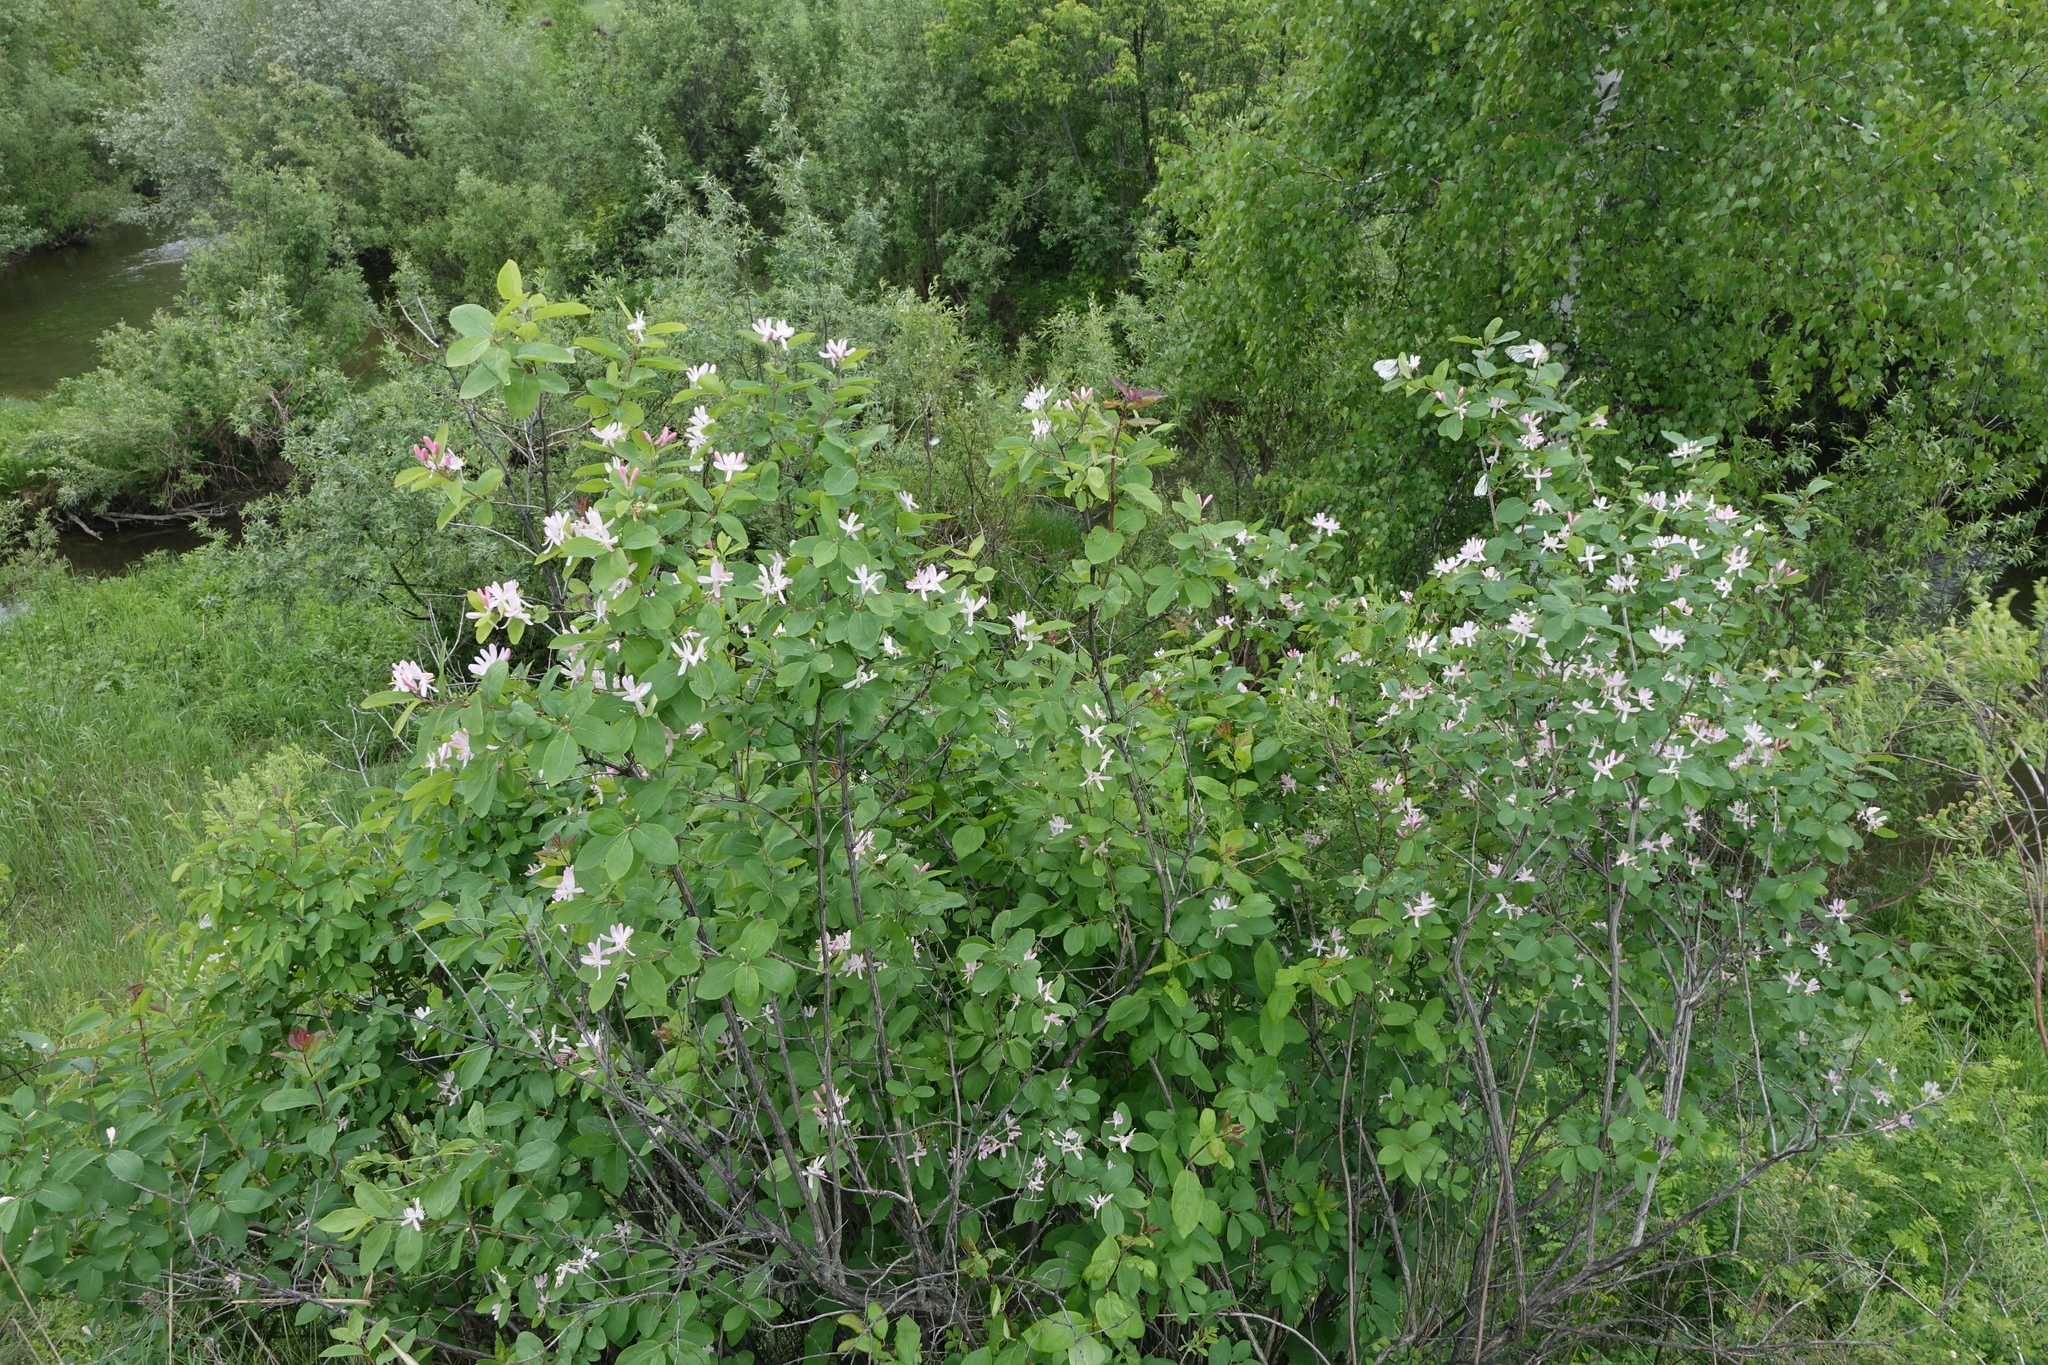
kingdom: Plantae
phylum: Tracheophyta
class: Magnoliopsida
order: Dipsacales
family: Caprifoliaceae
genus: Lonicera
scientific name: Lonicera tatarica
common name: Tatarian honeysuckle
